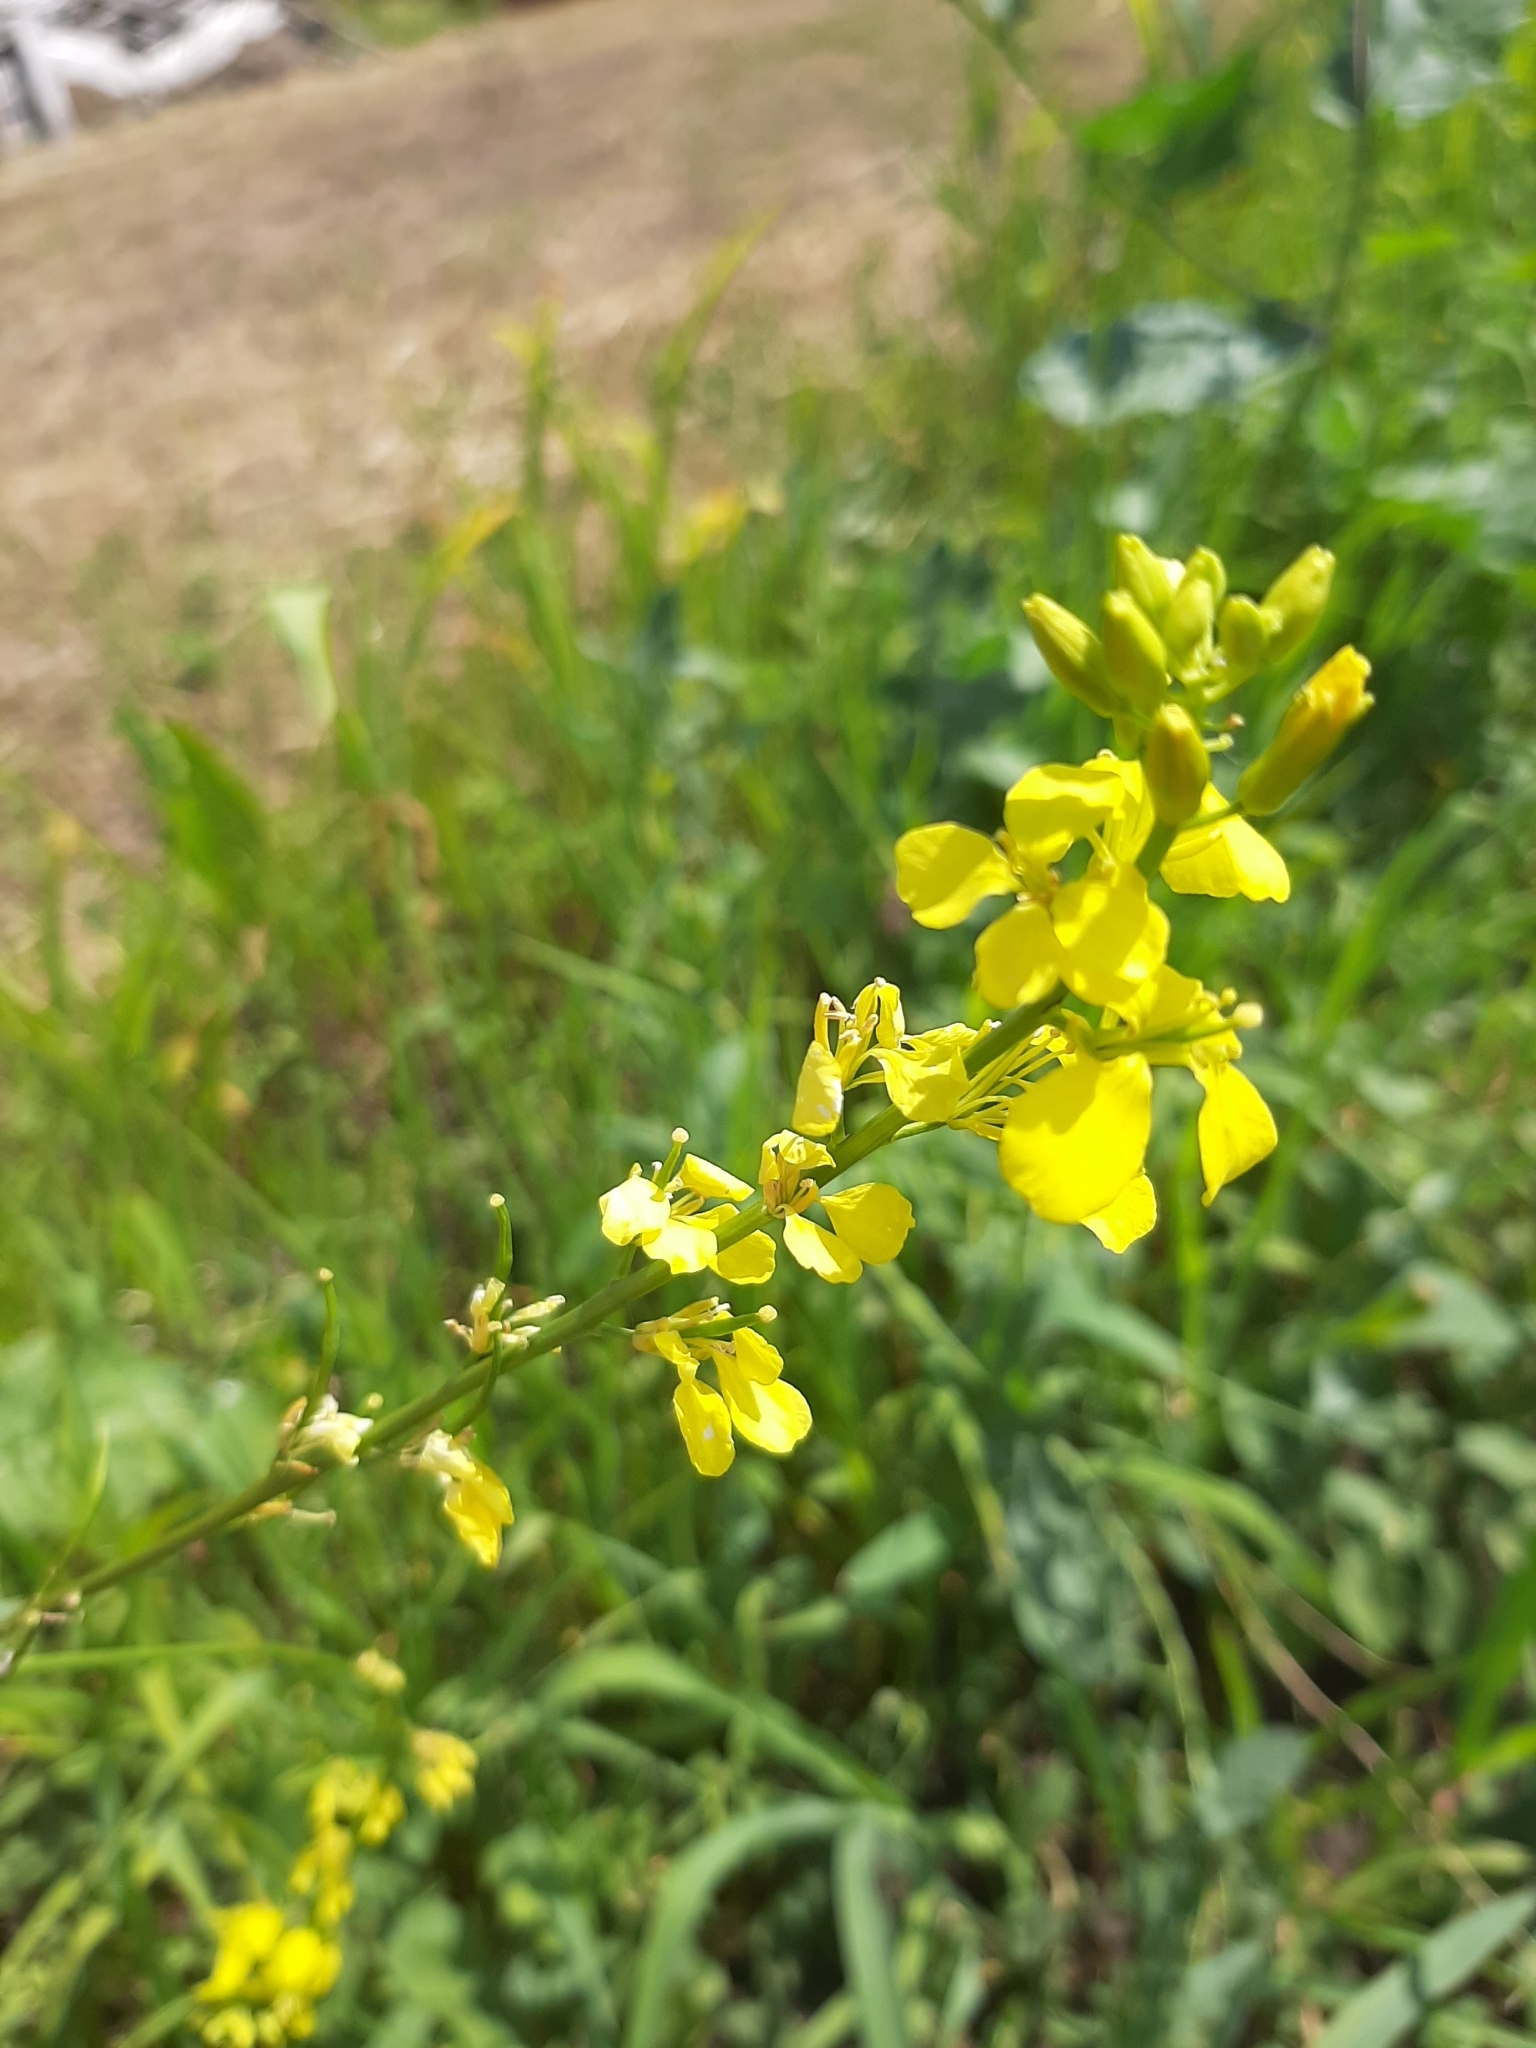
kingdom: Plantae
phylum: Tracheophyta
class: Magnoliopsida
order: Brassicales
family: Brassicaceae
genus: Sinapis
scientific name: Sinapis arvensis
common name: Charlock
